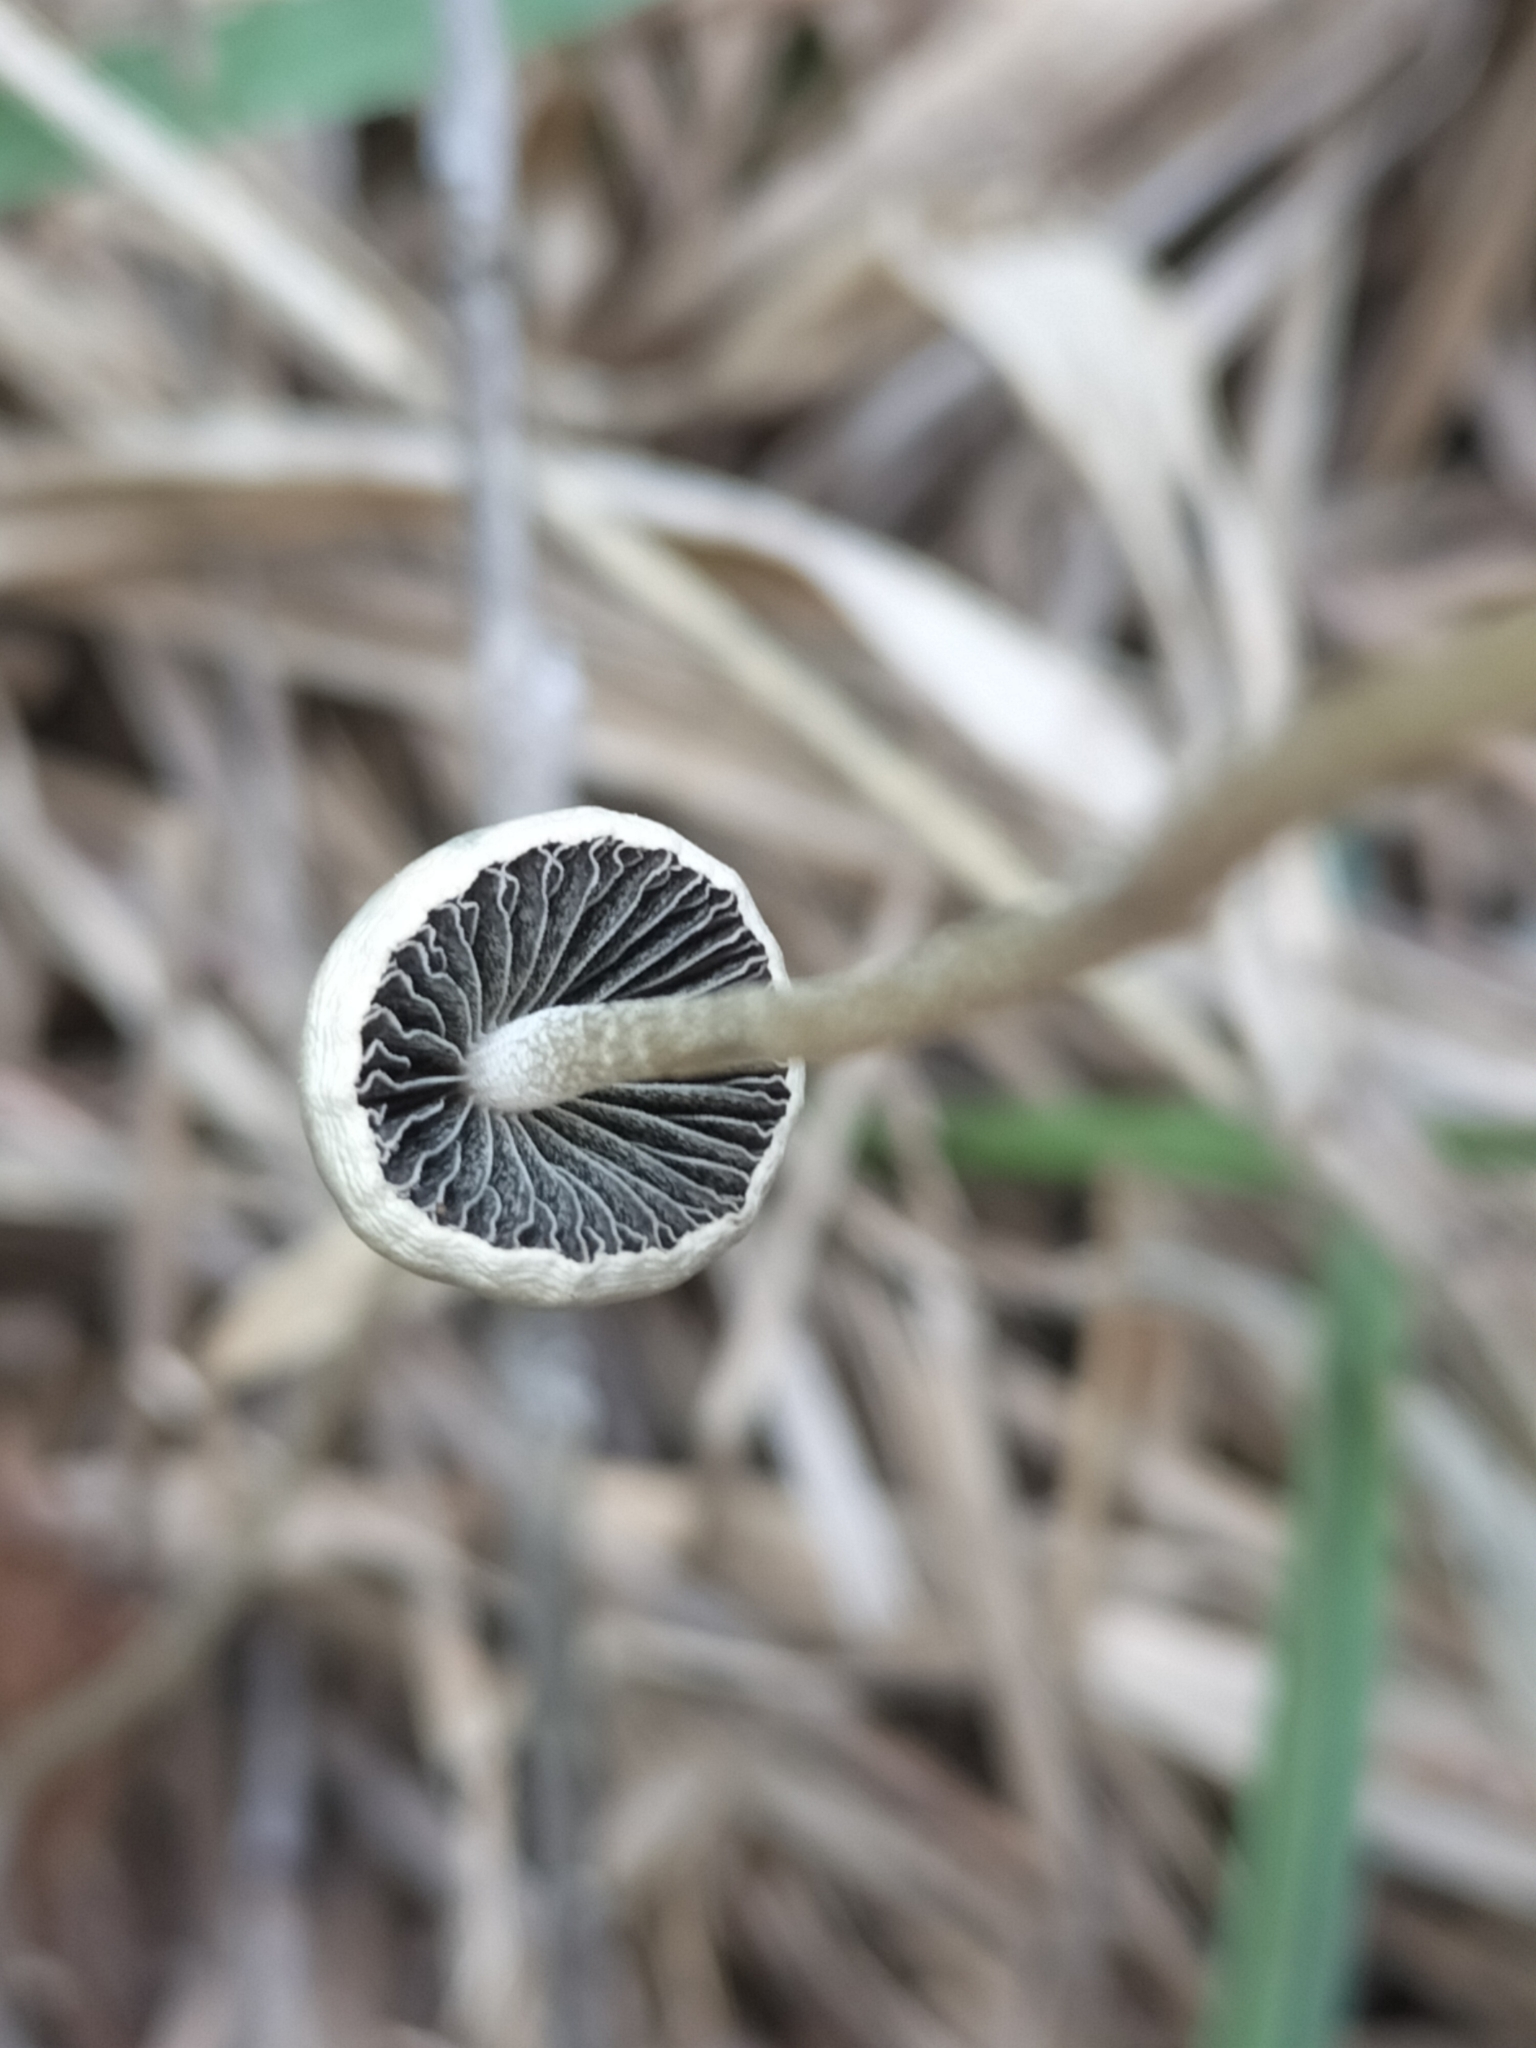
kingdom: Fungi
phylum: Basidiomycota
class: Agaricomycetes
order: Agaricales
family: Bolbitiaceae
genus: Panaeolus
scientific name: Panaeolus cyanescens
